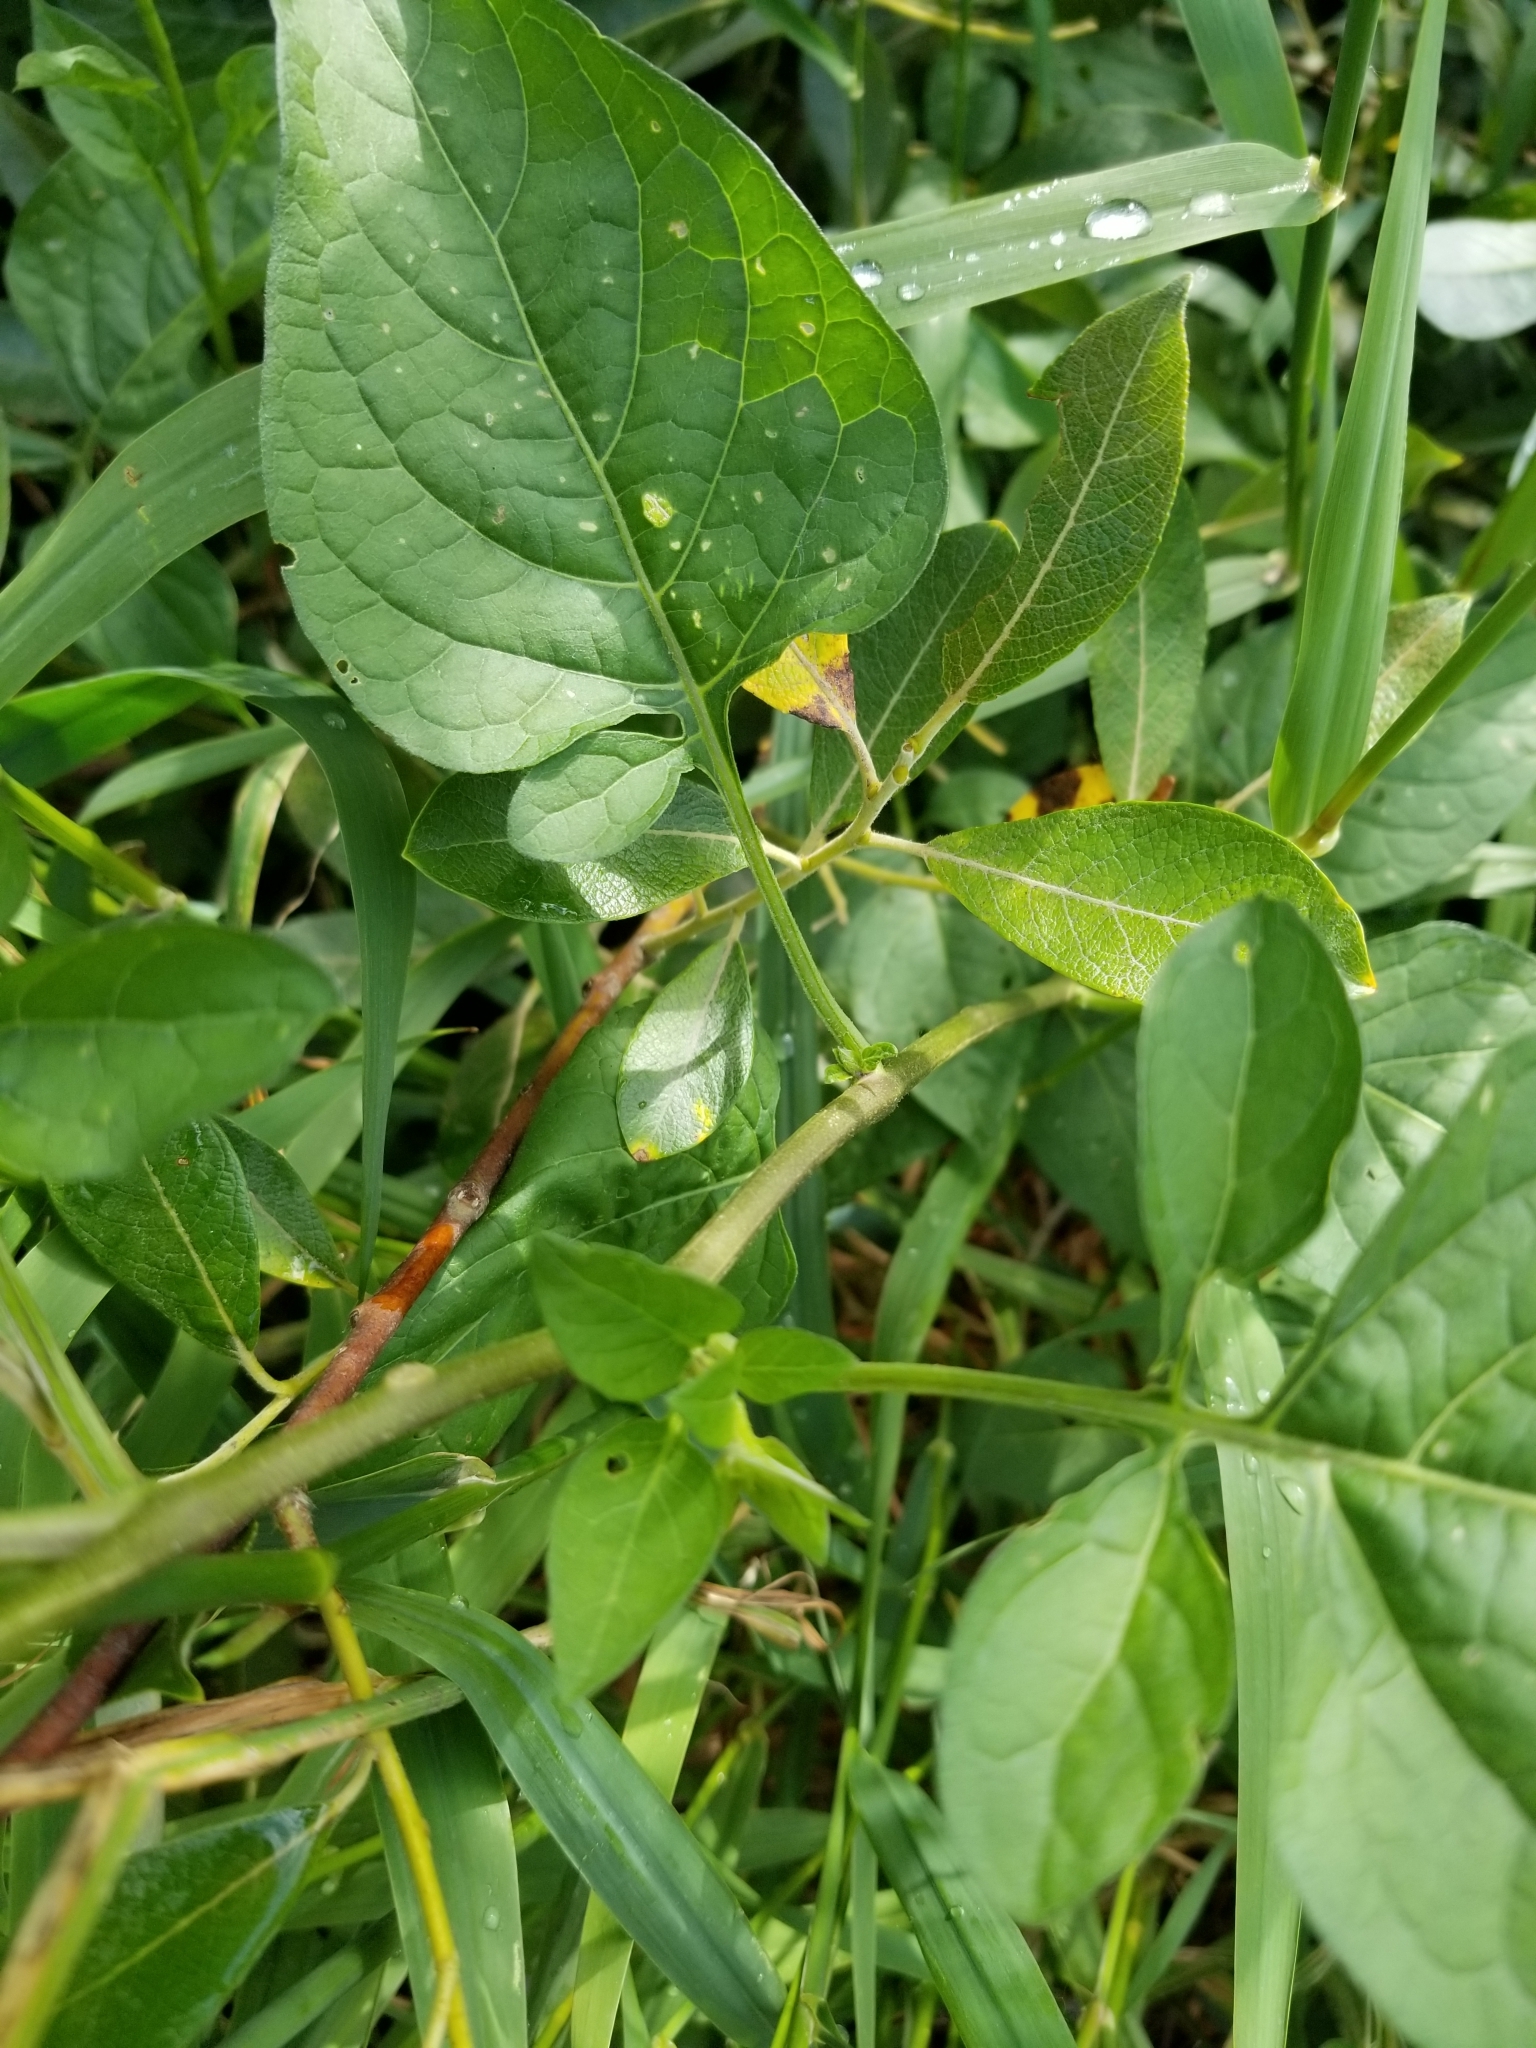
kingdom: Plantae
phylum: Tracheophyta
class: Magnoliopsida
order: Solanales
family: Solanaceae
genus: Solanum
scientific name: Solanum dulcamara
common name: Climbing nightshade
